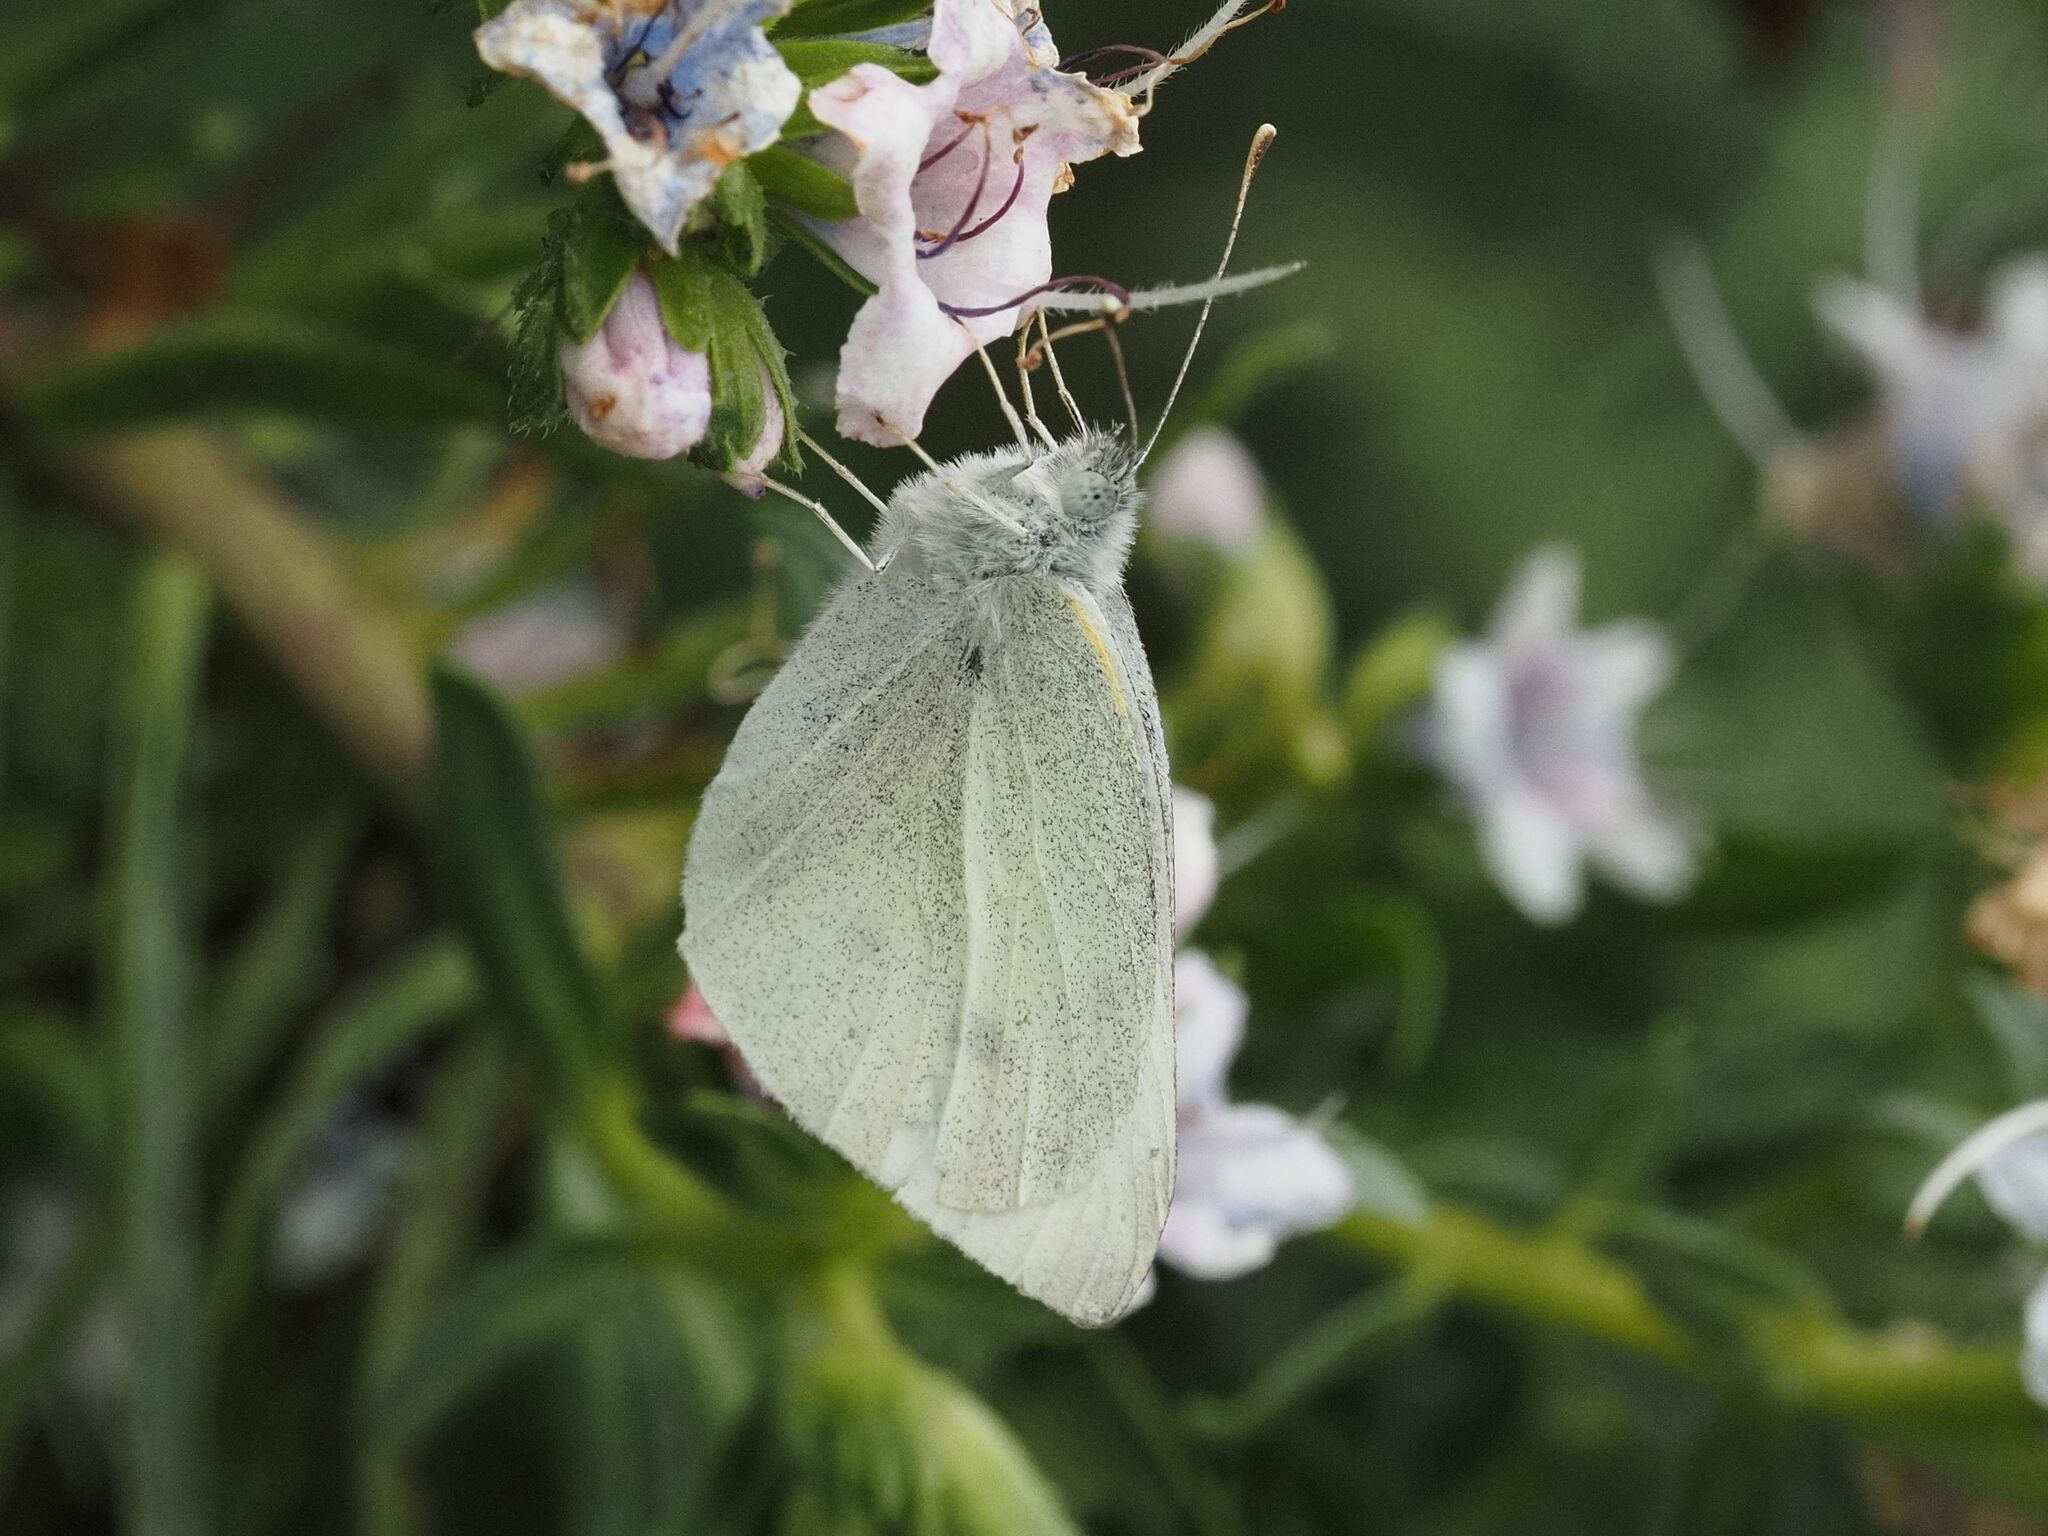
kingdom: Animalia
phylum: Arthropoda
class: Insecta
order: Lepidoptera
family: Pieridae
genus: Pieris
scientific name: Pieris rapae
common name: Small white
